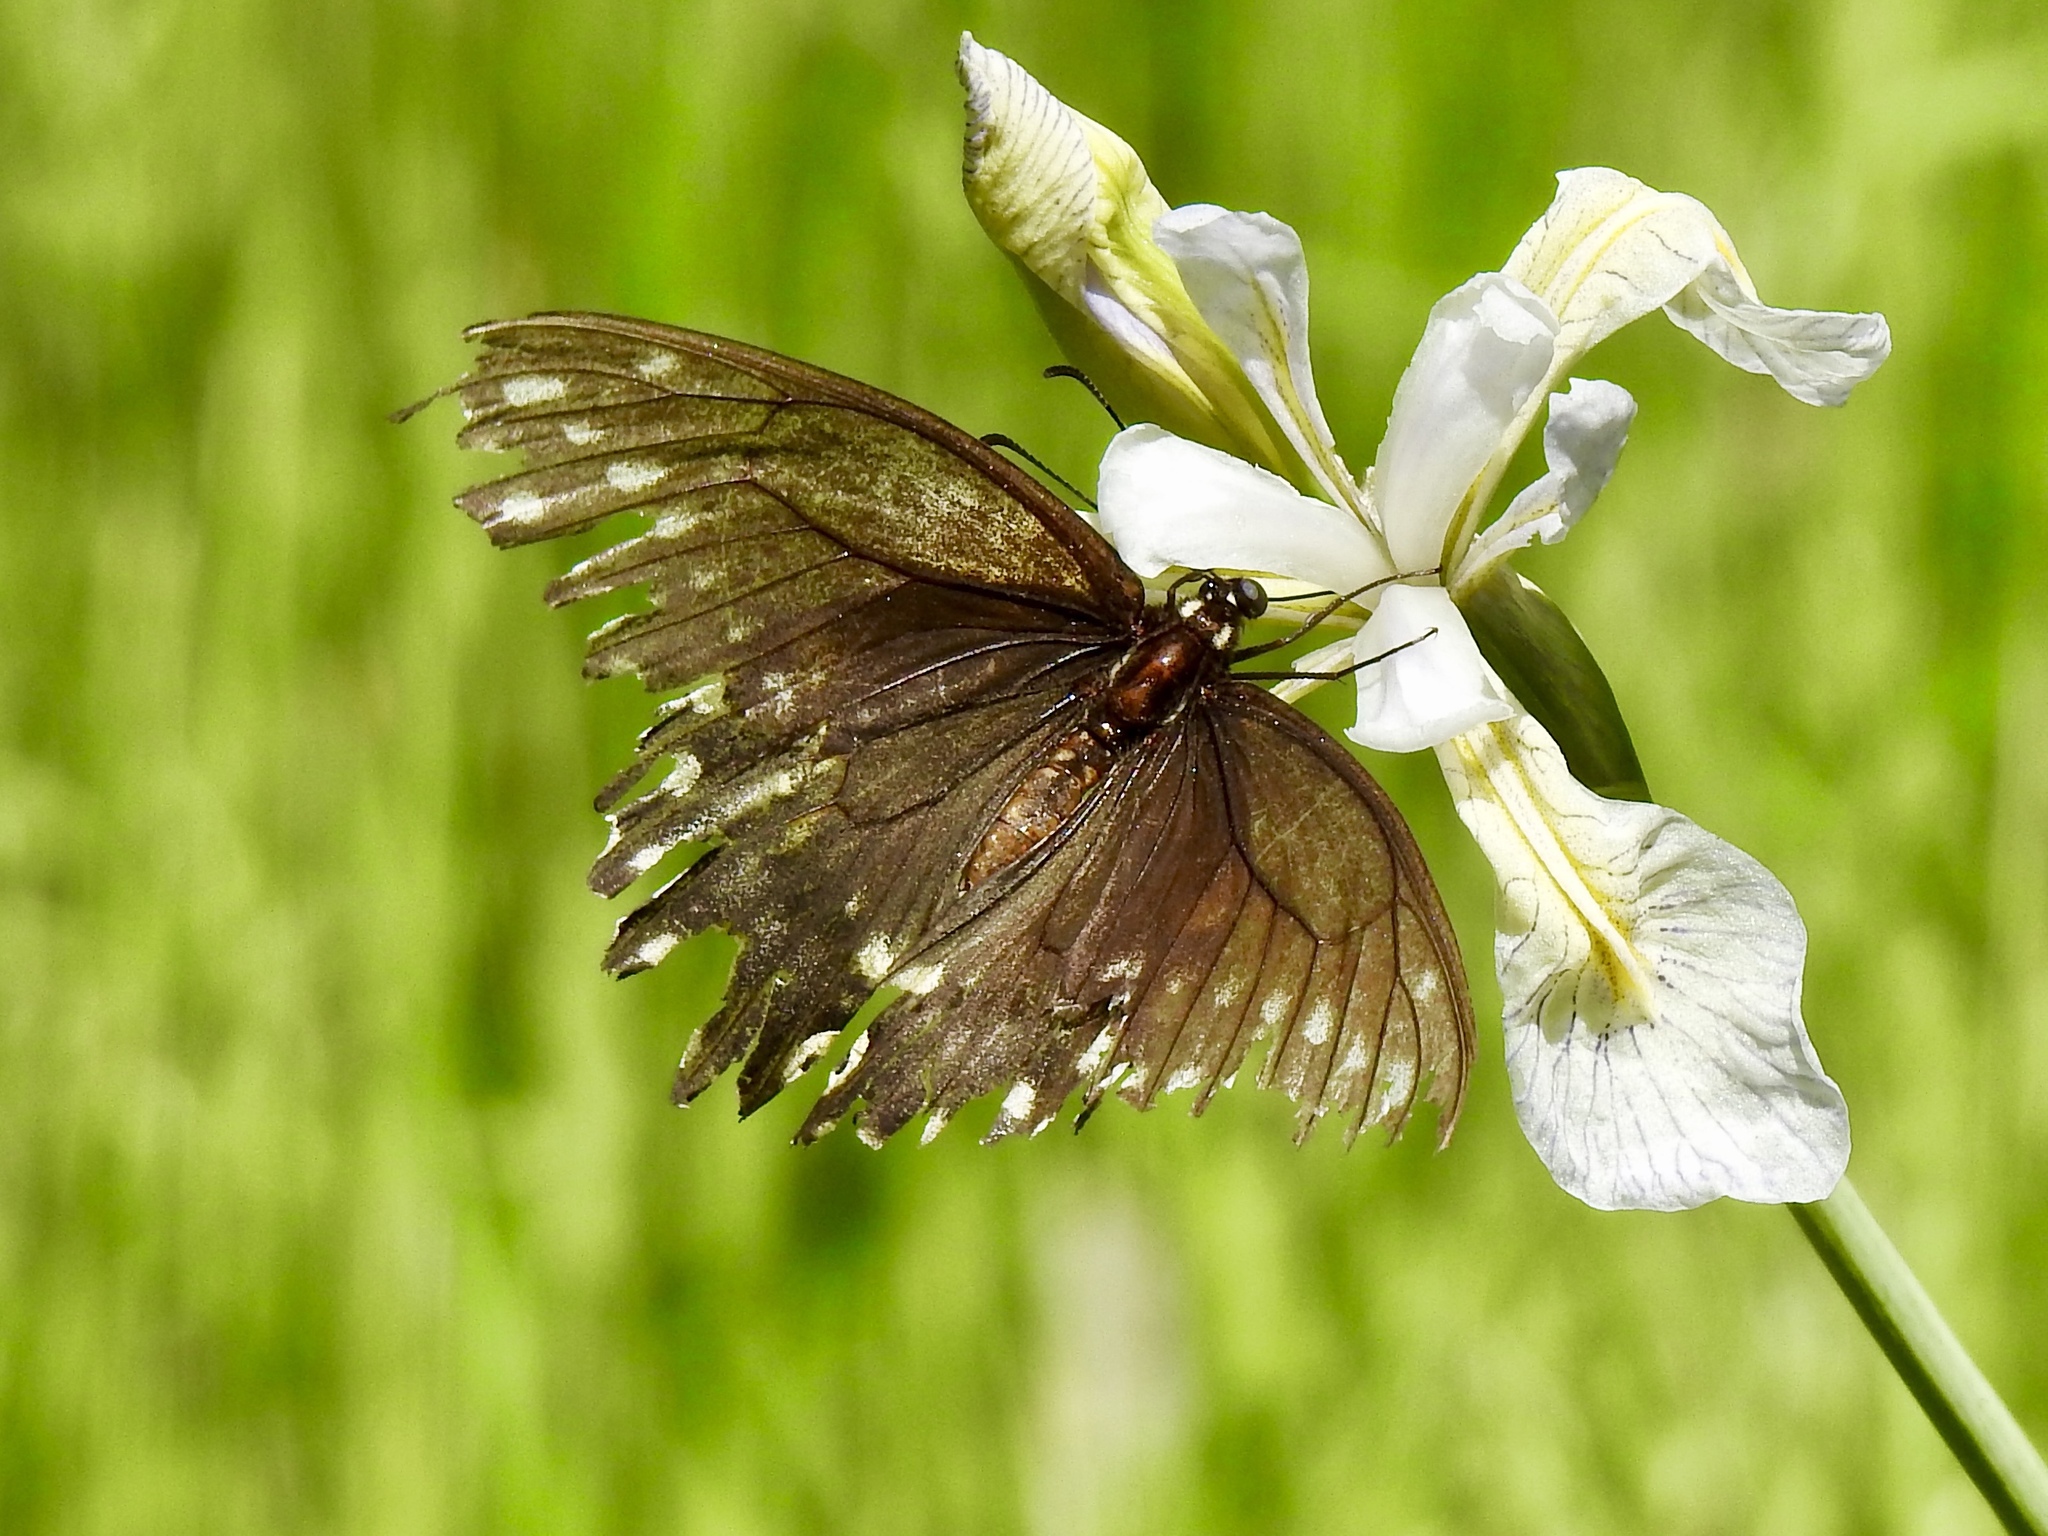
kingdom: Animalia
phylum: Arthropoda
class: Insecta
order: Lepidoptera
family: Papilionidae
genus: Papilio
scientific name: Papilio polyxenes
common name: Black swallowtail
